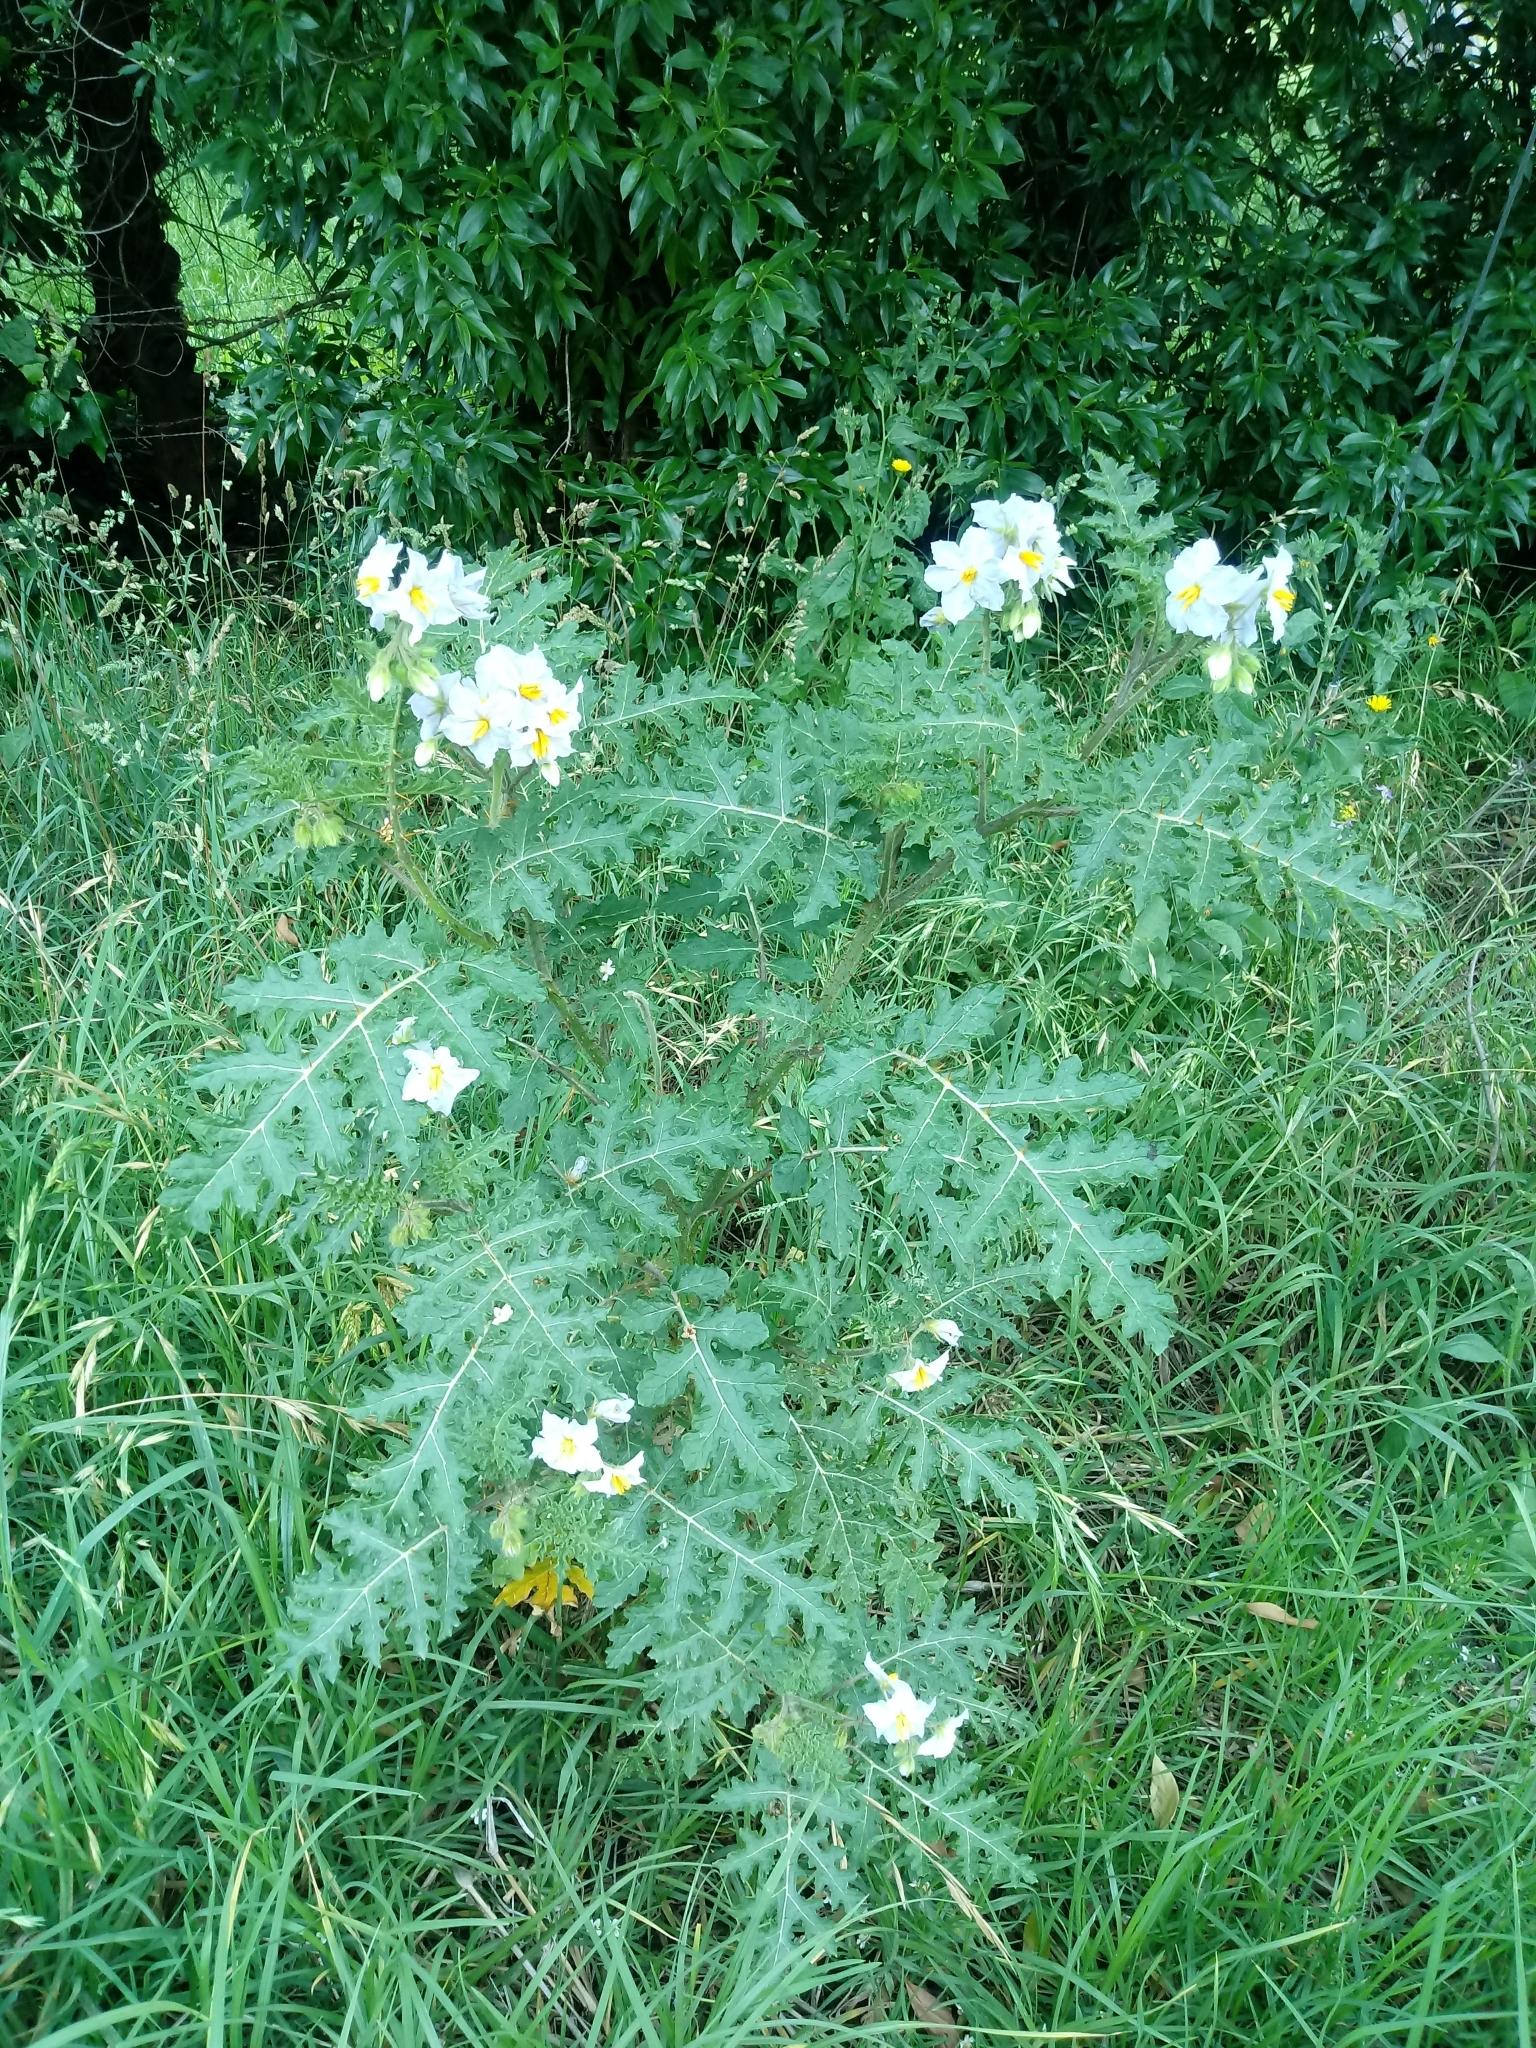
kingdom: Plantae
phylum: Tracheophyta
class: Magnoliopsida
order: Solanales
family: Solanaceae
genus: Solanum
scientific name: Solanum sisymbriifolium
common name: Red buffalo-bur
